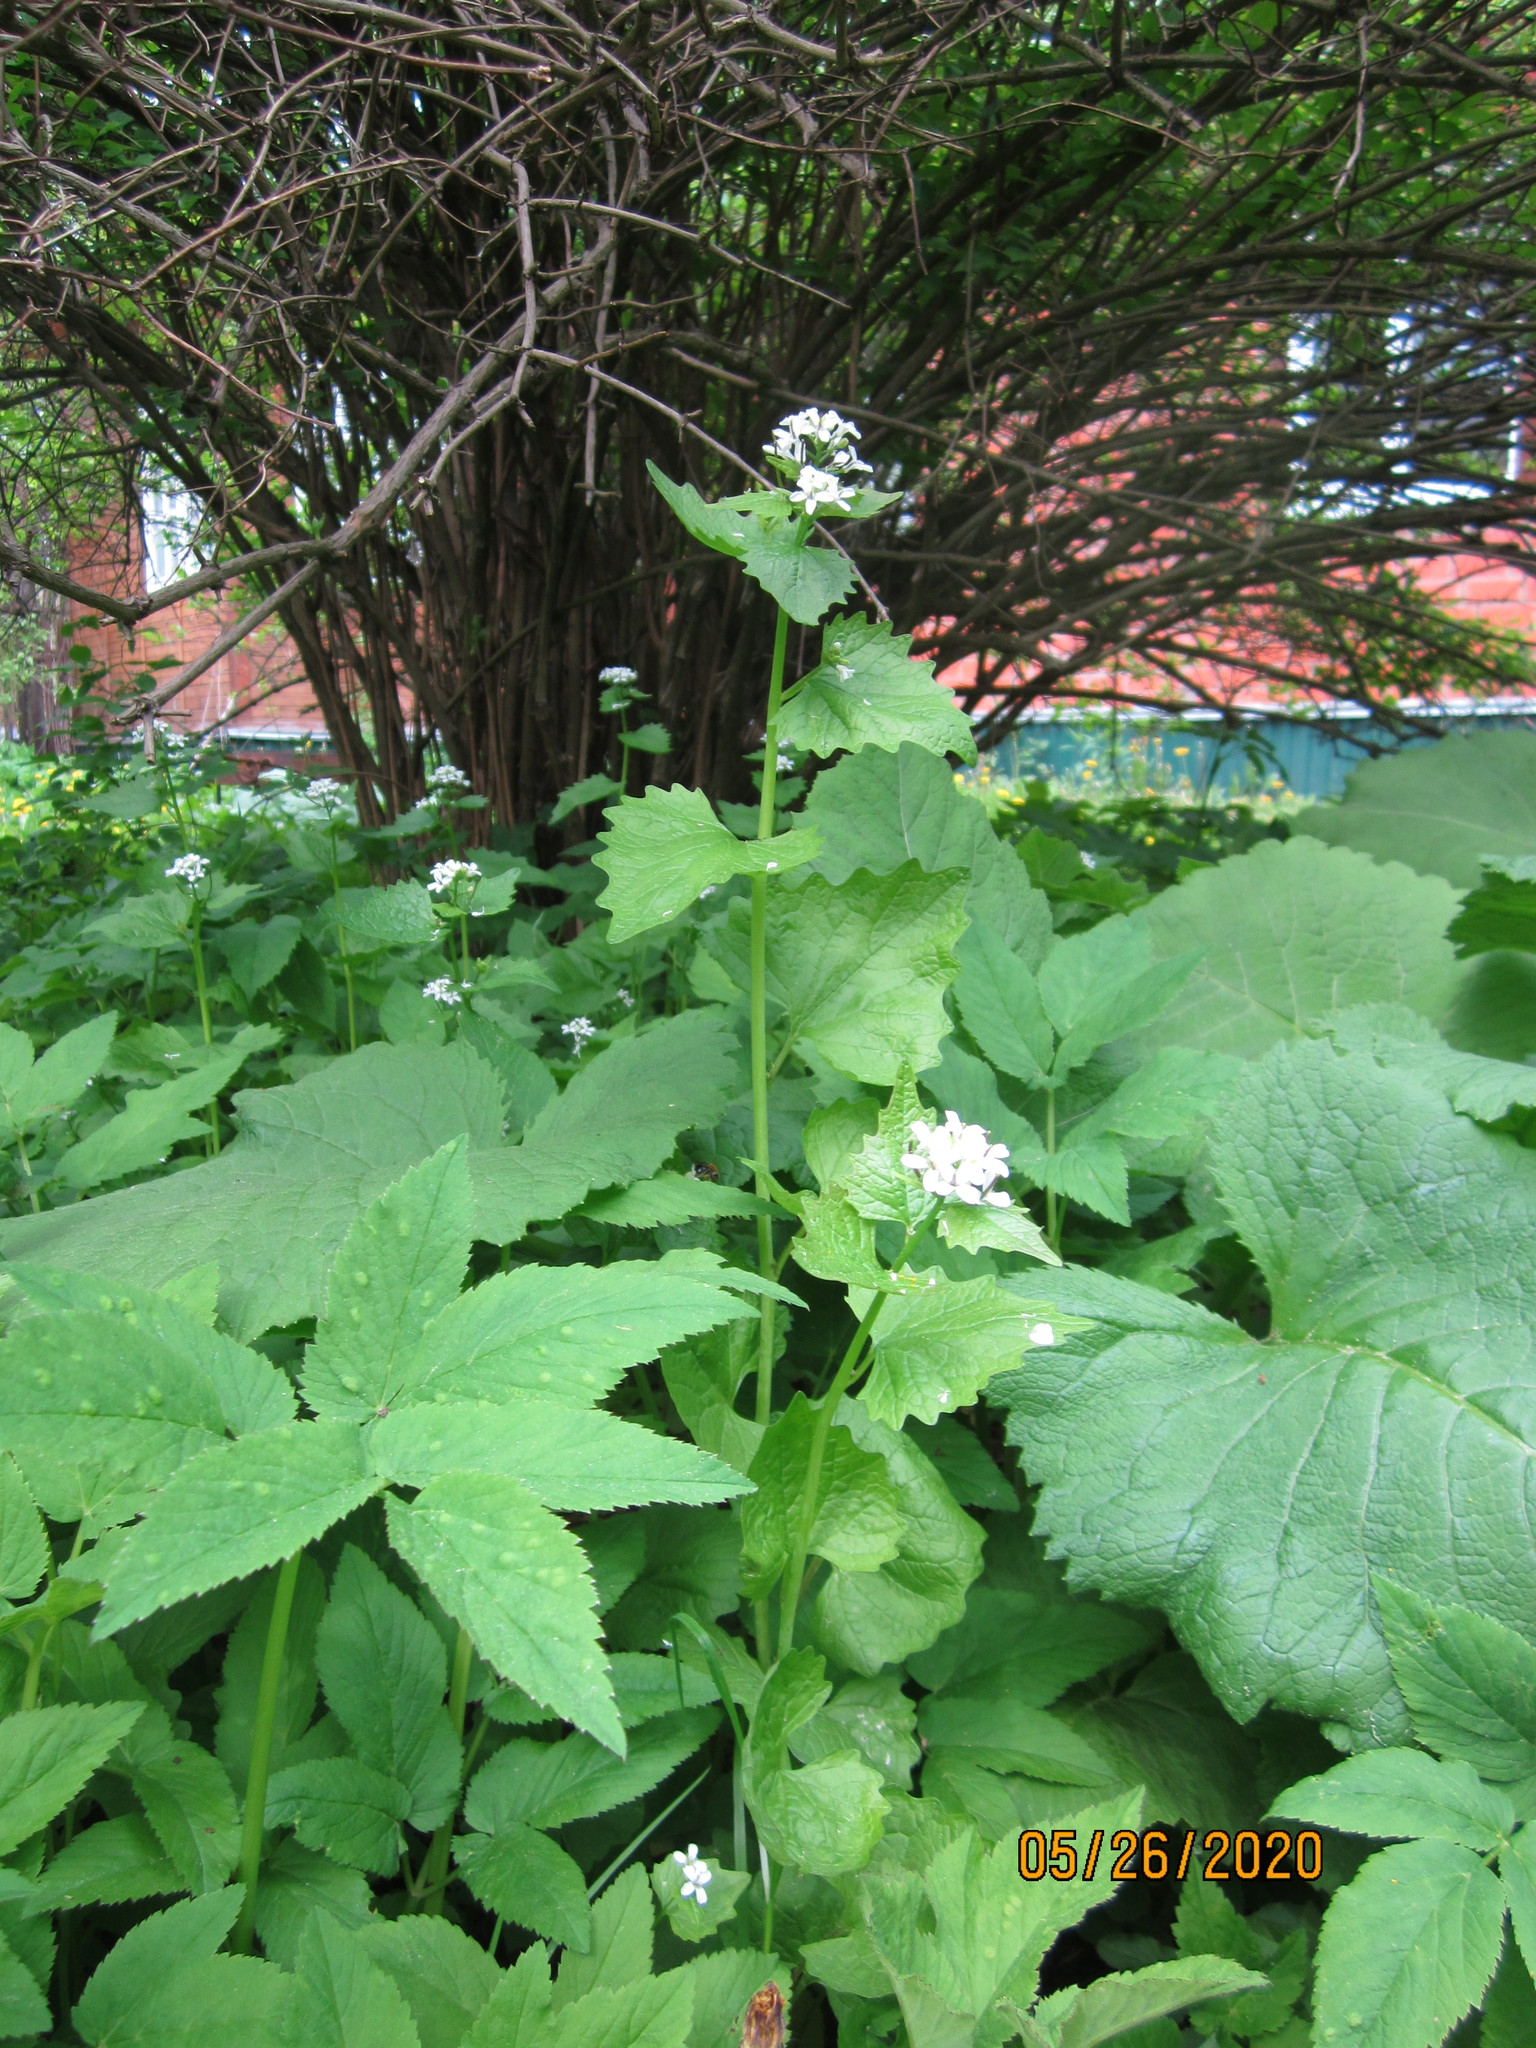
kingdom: Plantae
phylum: Tracheophyta
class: Magnoliopsida
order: Brassicales
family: Brassicaceae
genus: Alliaria
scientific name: Alliaria petiolata
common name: Garlic mustard
